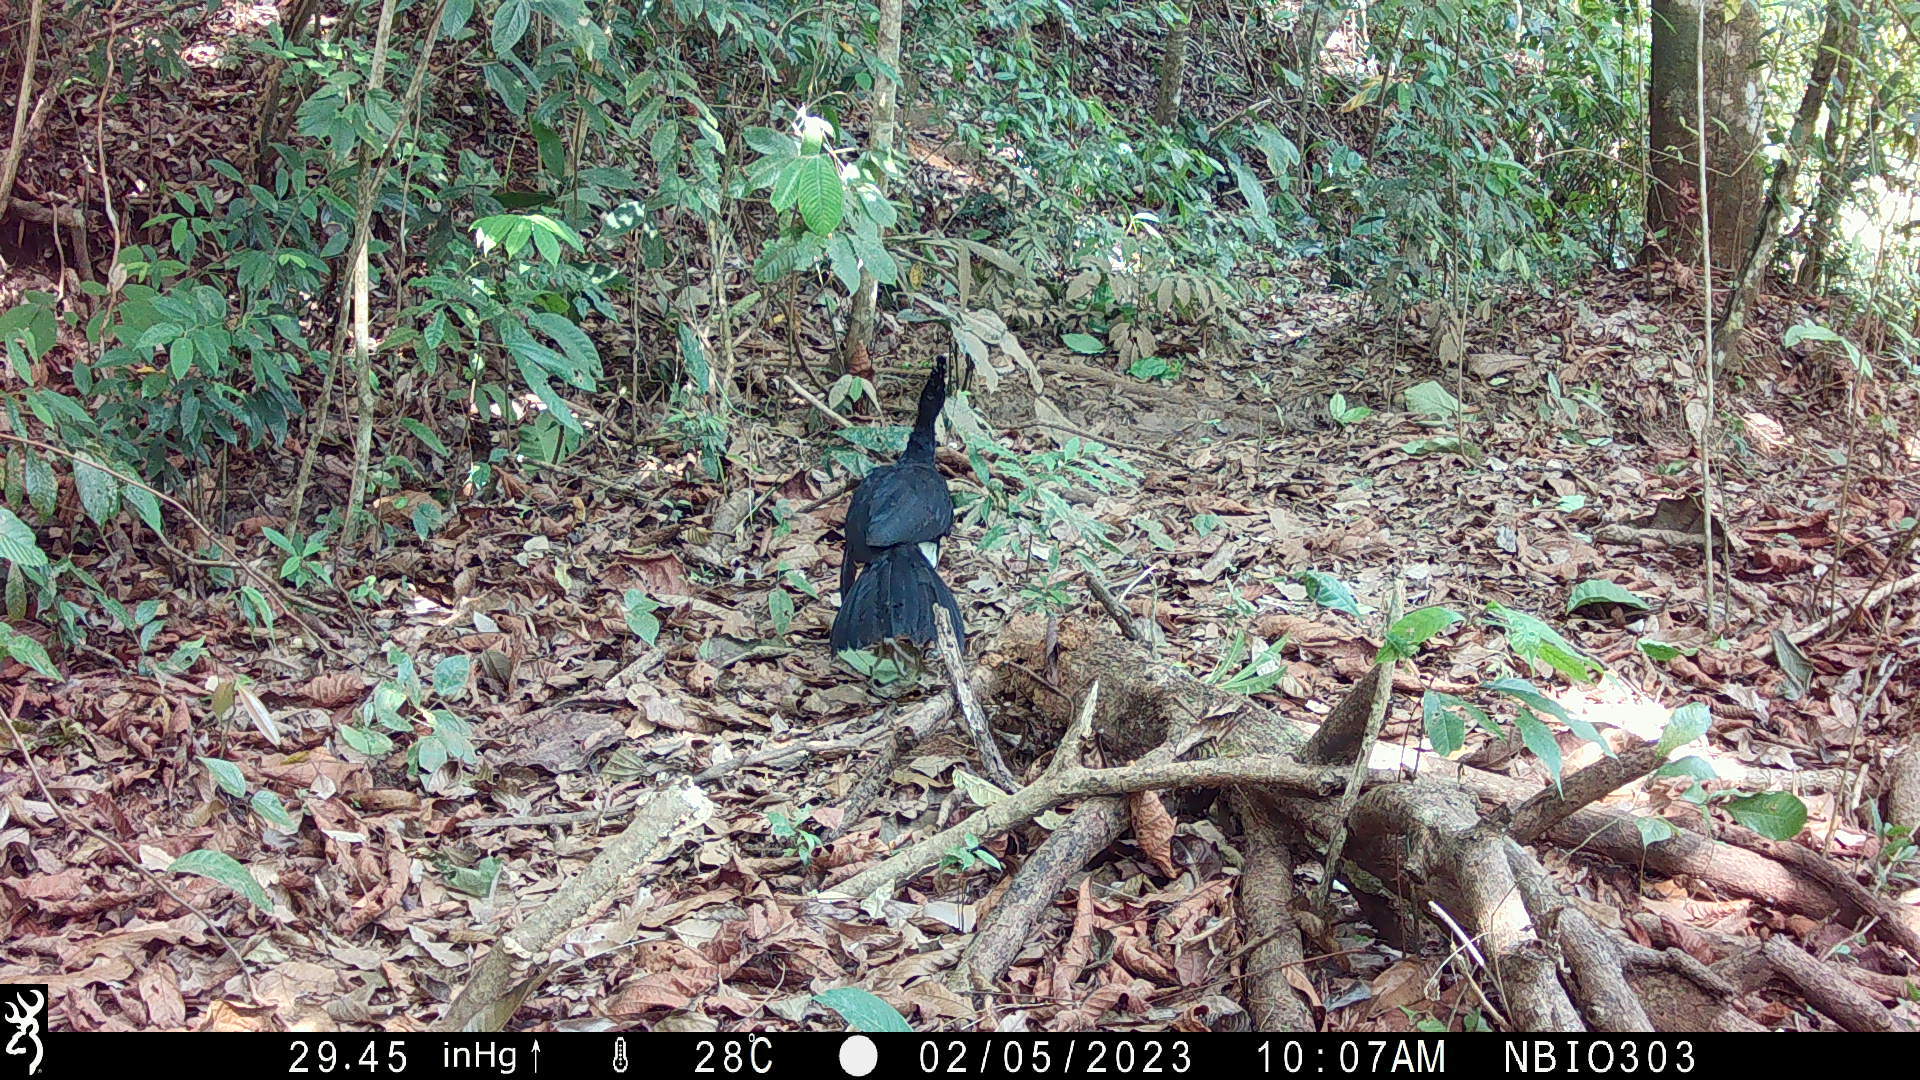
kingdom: Animalia
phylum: Chordata
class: Aves
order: Galliformes
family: Cracidae
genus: Crax
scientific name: Crax rubra
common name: Great curassow
